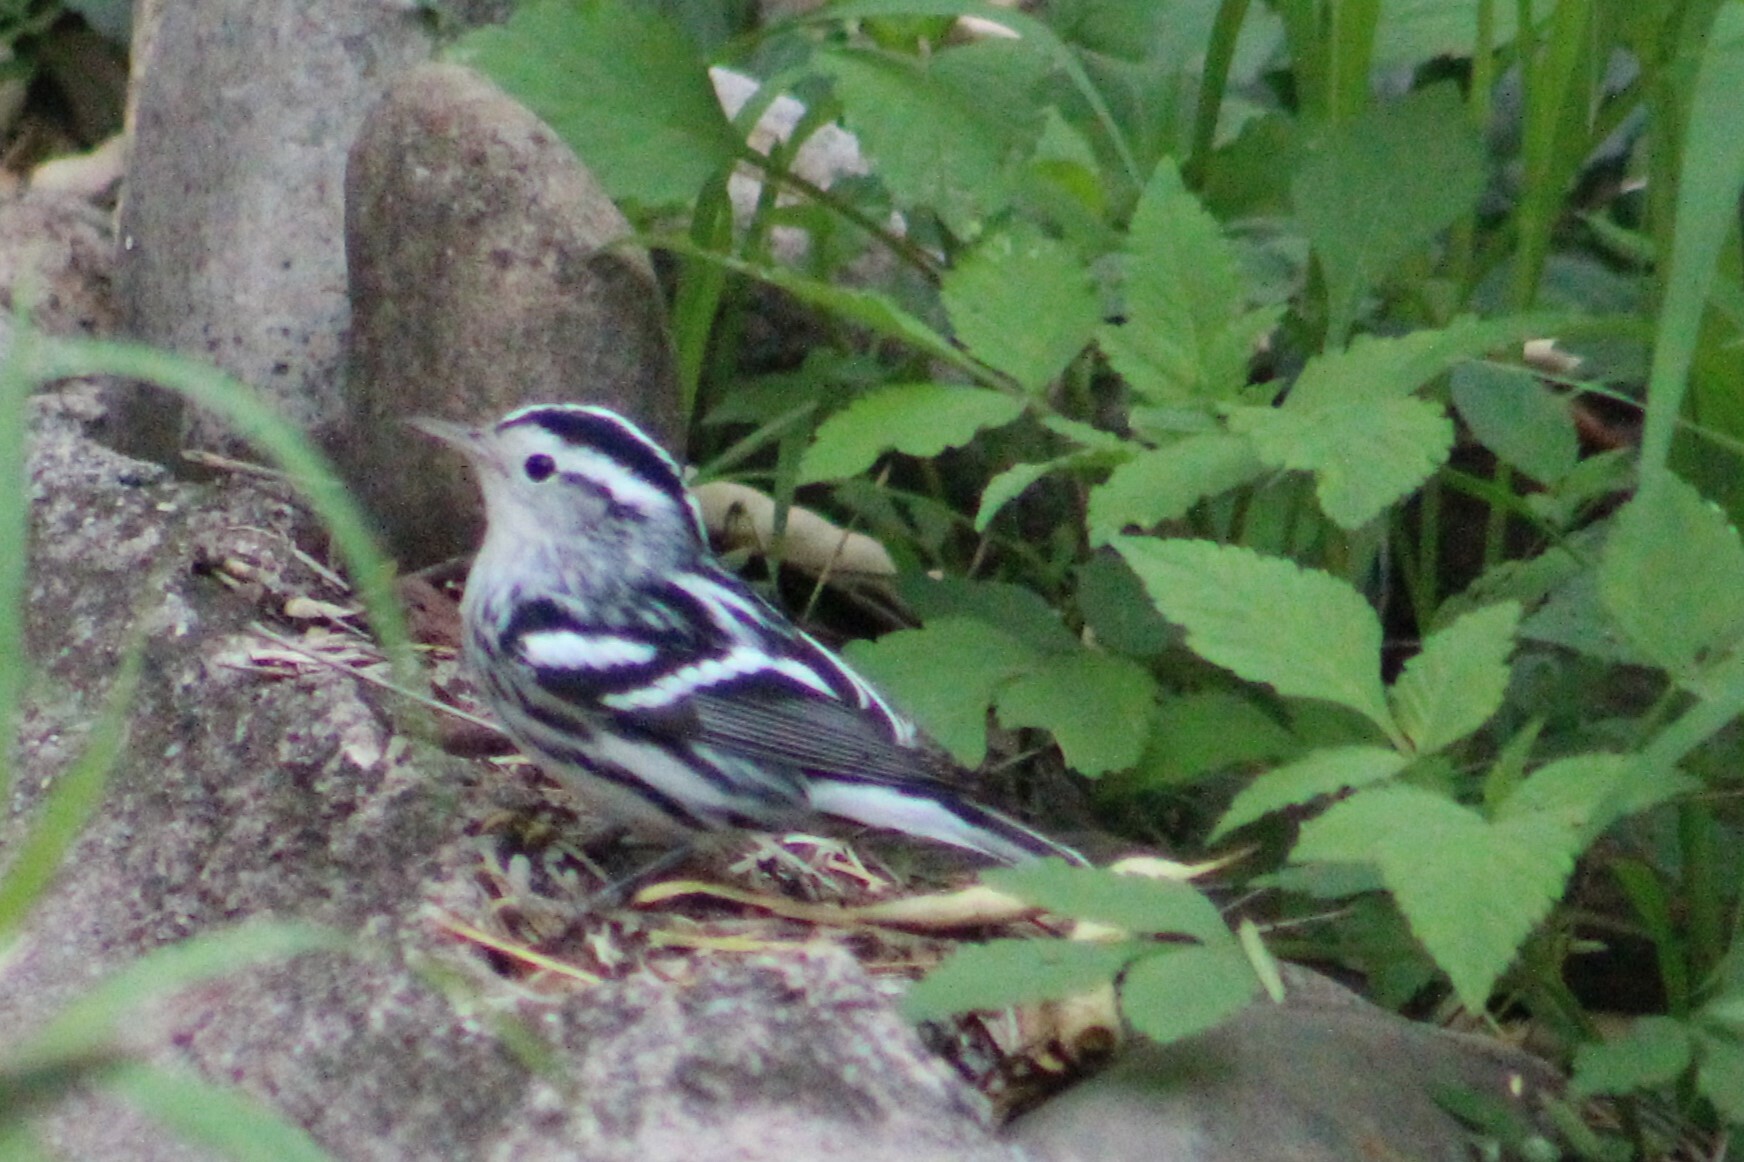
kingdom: Animalia
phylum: Chordata
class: Aves
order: Passeriformes
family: Parulidae
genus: Mniotilta
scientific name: Mniotilta varia
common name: Black-and-white warbler
